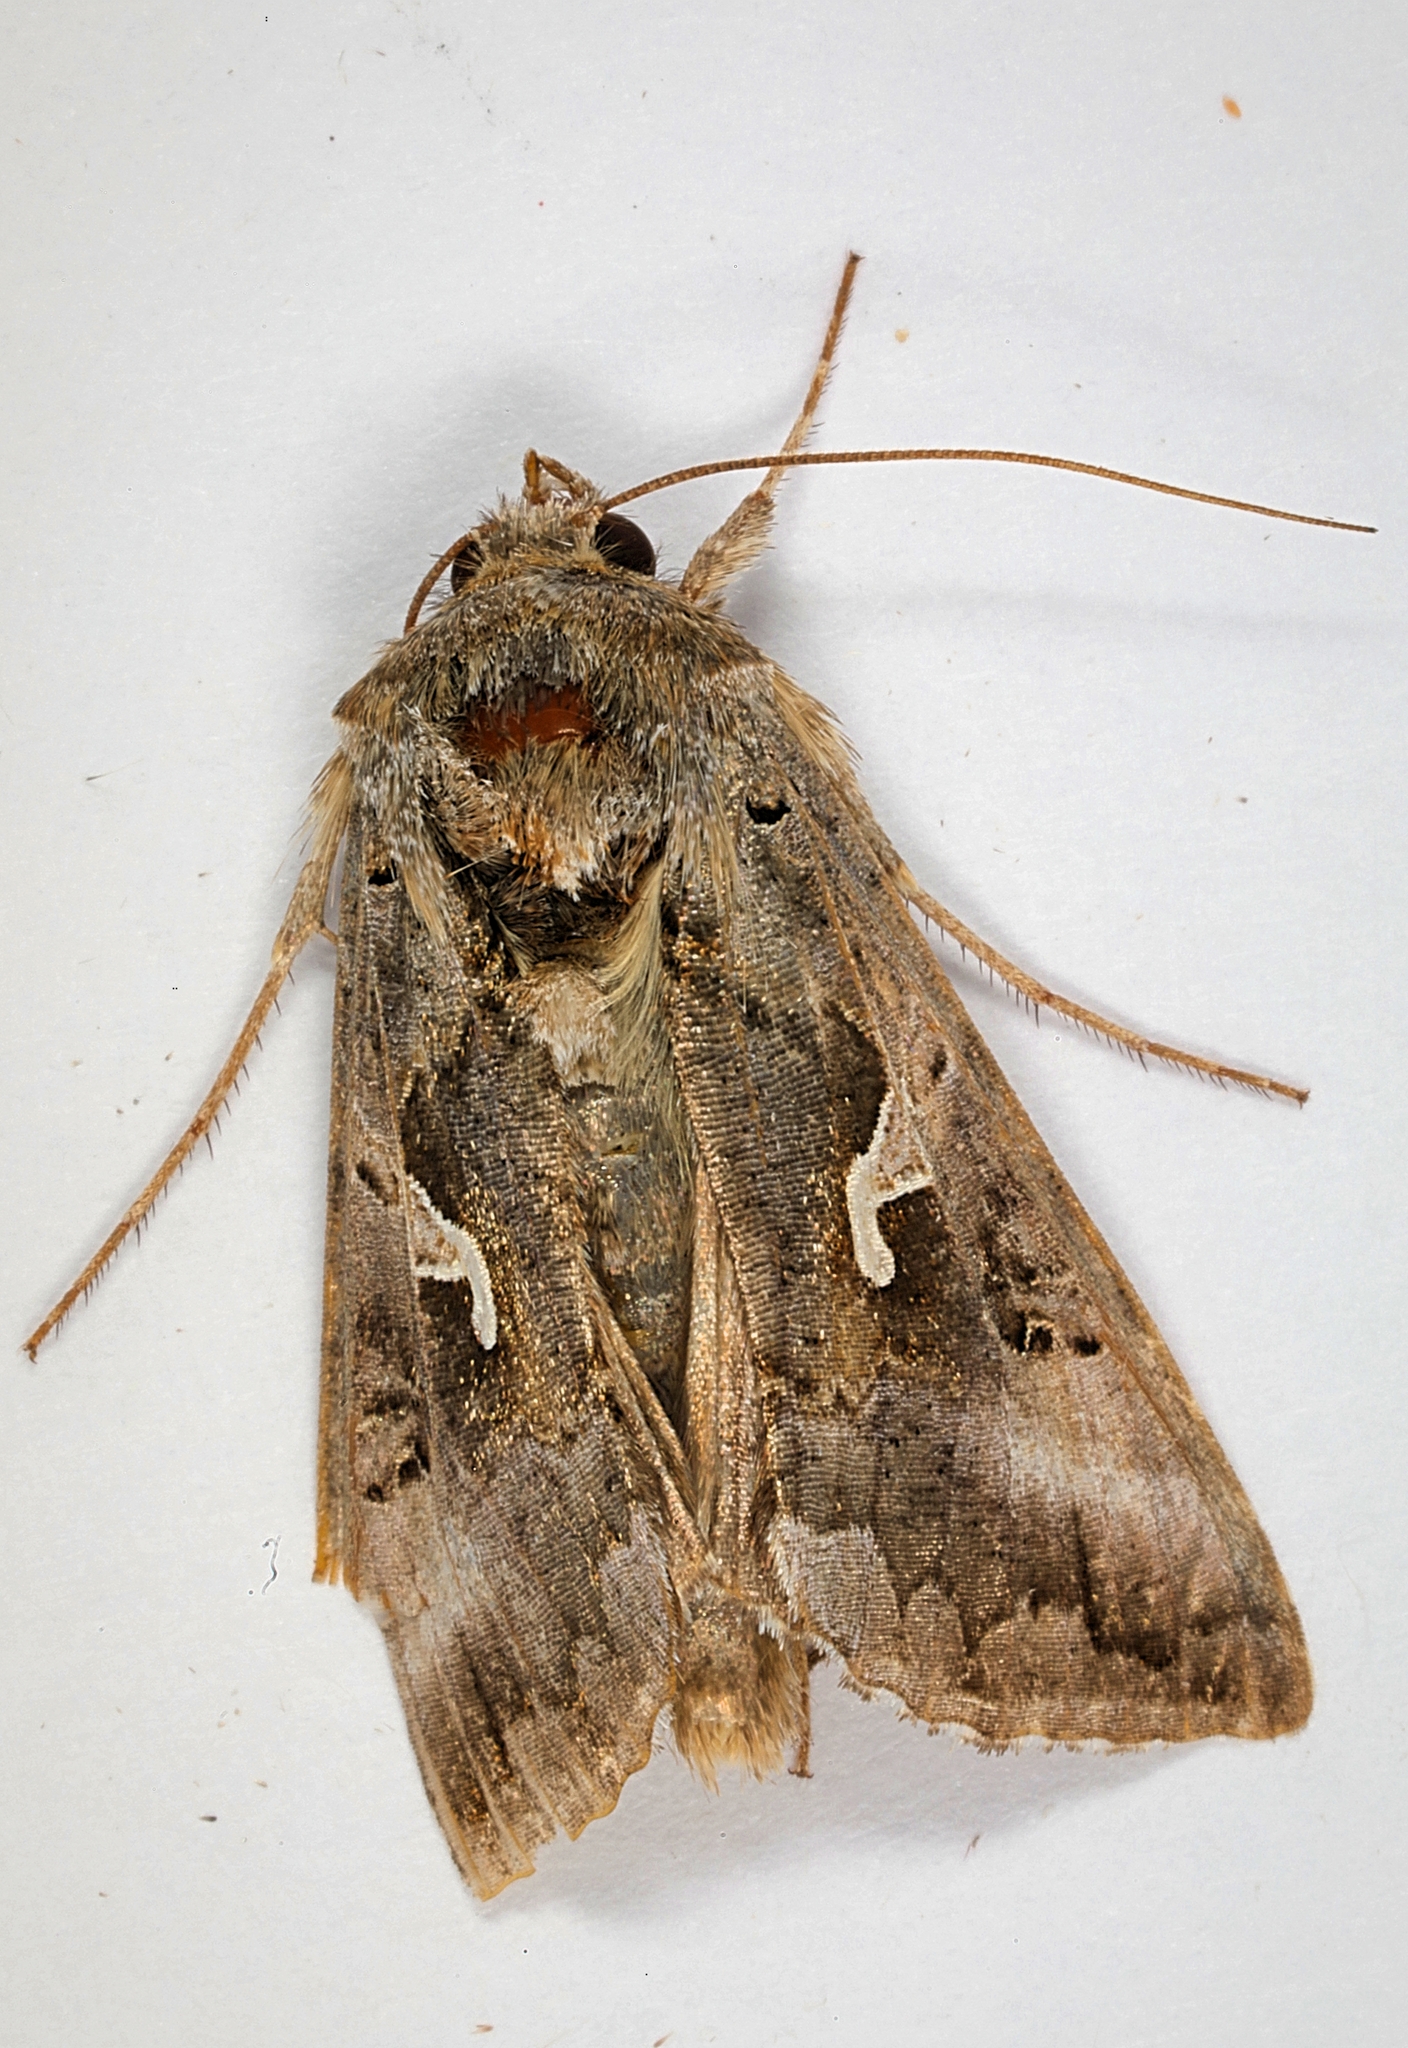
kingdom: Animalia
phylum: Arthropoda
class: Insecta
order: Lepidoptera
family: Noctuidae
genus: Autographa
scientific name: Autographa gamma
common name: Silver y
